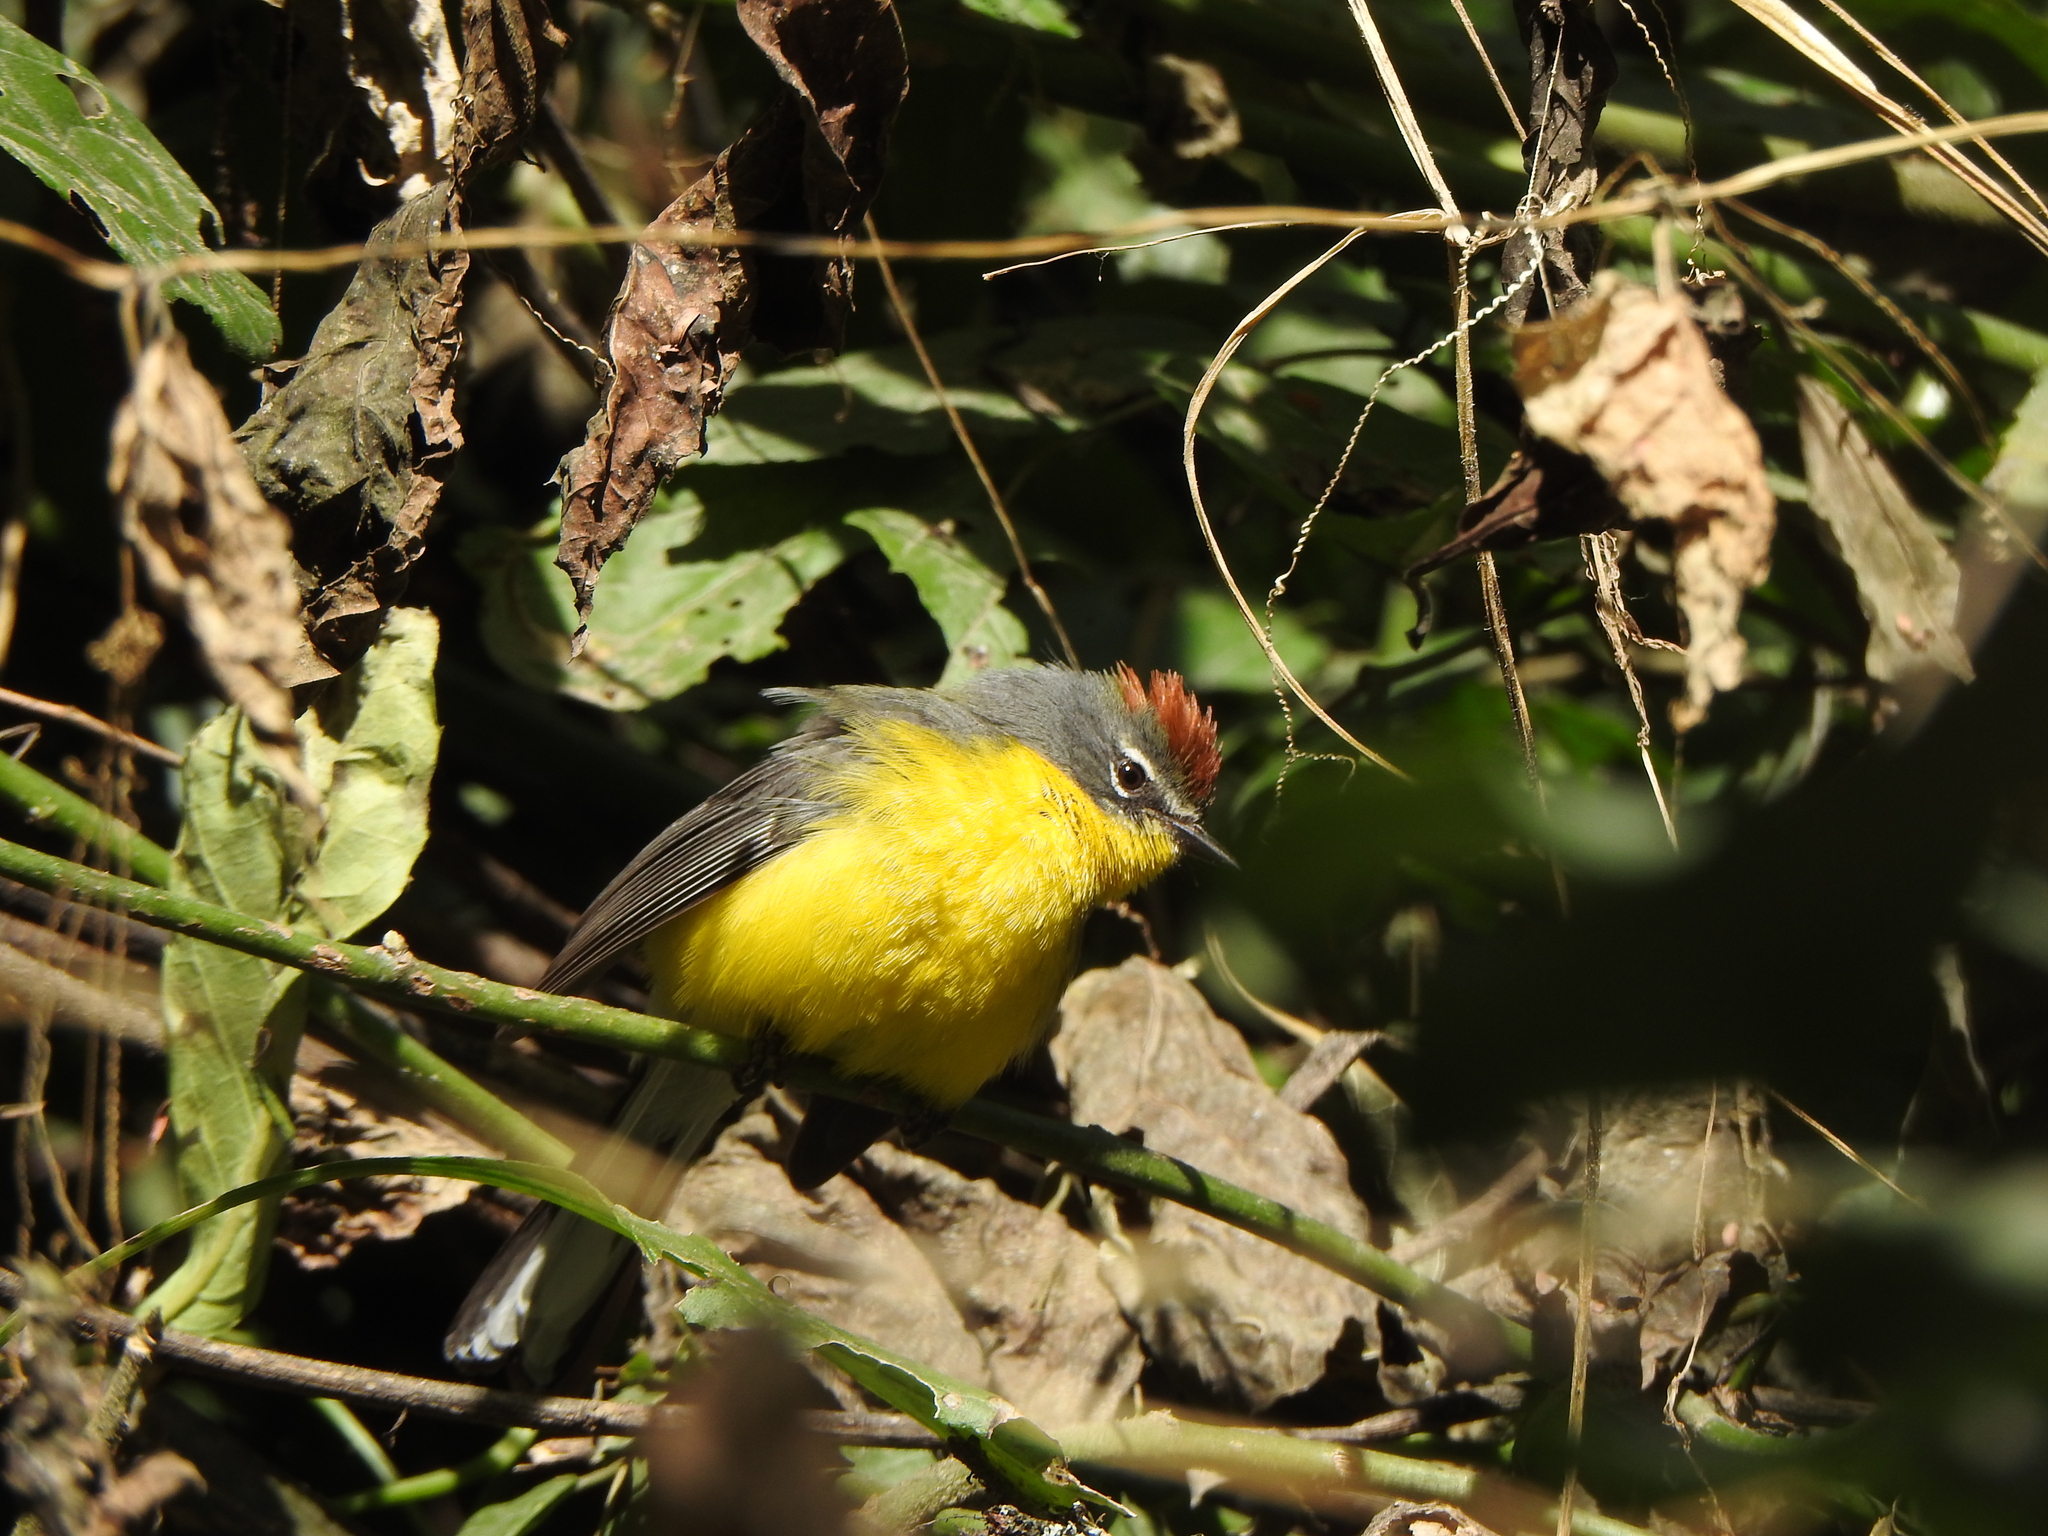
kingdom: Animalia
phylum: Chordata
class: Aves
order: Passeriformes
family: Parulidae
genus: Myioborus
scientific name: Myioborus brunniceps
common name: Brown-capped whitestart
